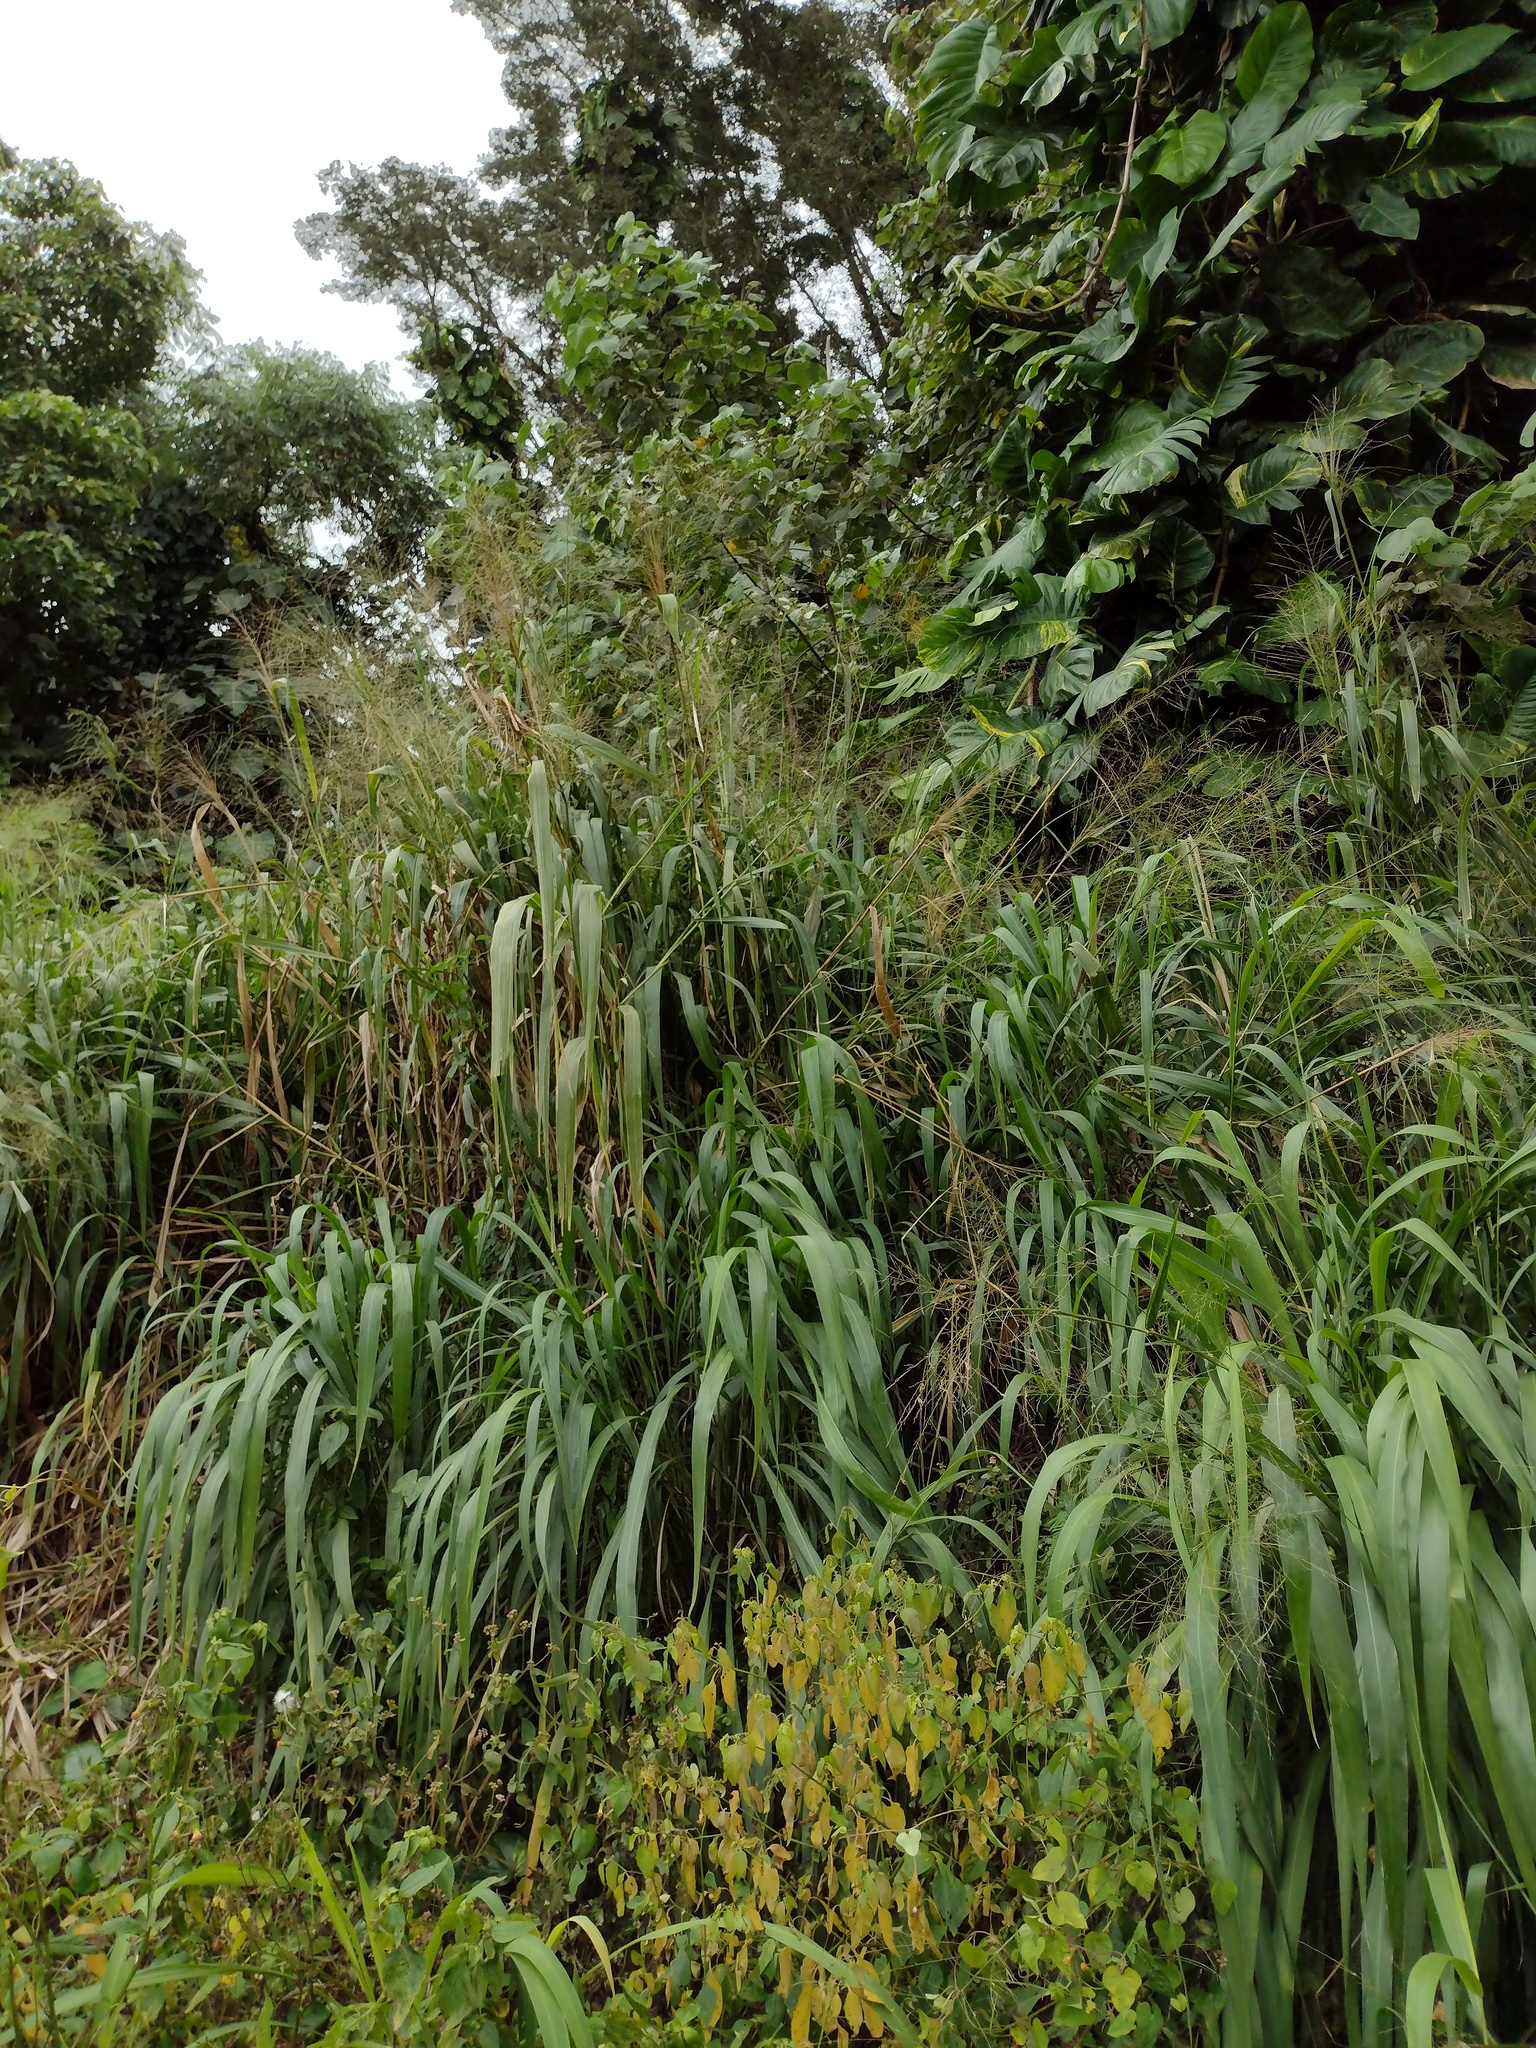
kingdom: Plantae
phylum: Tracheophyta
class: Liliopsida
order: Poales
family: Poaceae
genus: Megathyrsus
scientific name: Megathyrsus maximus
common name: Guineagrass
